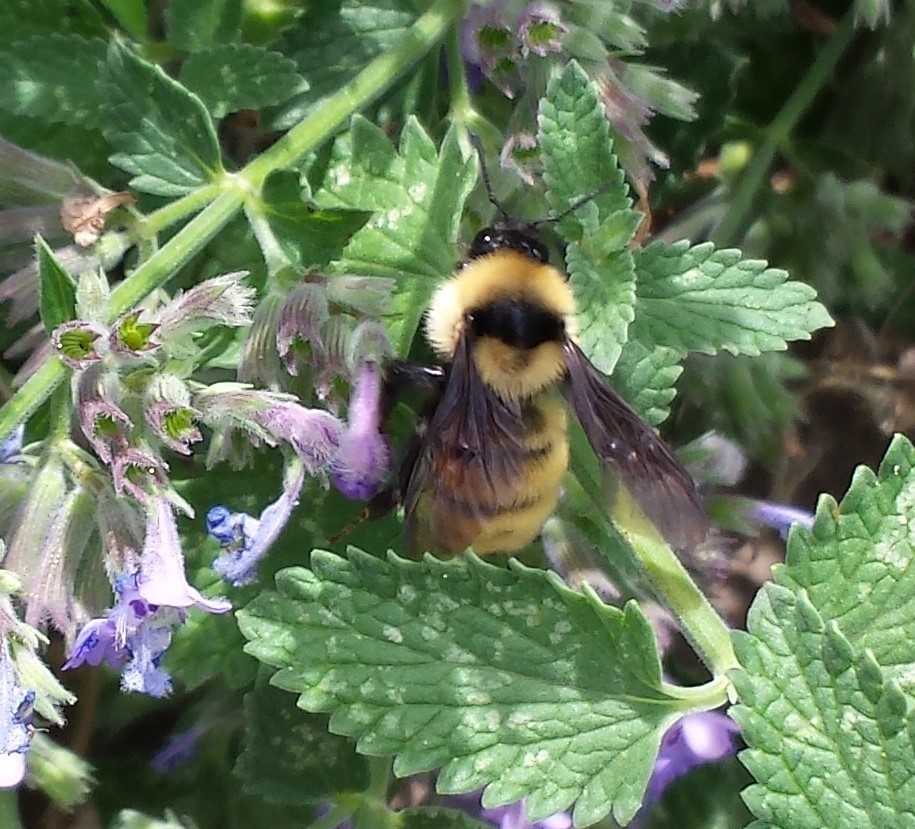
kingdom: Animalia
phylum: Arthropoda
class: Insecta
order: Hymenoptera
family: Apidae
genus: Bombus
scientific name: Bombus fervidus
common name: Yellow bumble bee
